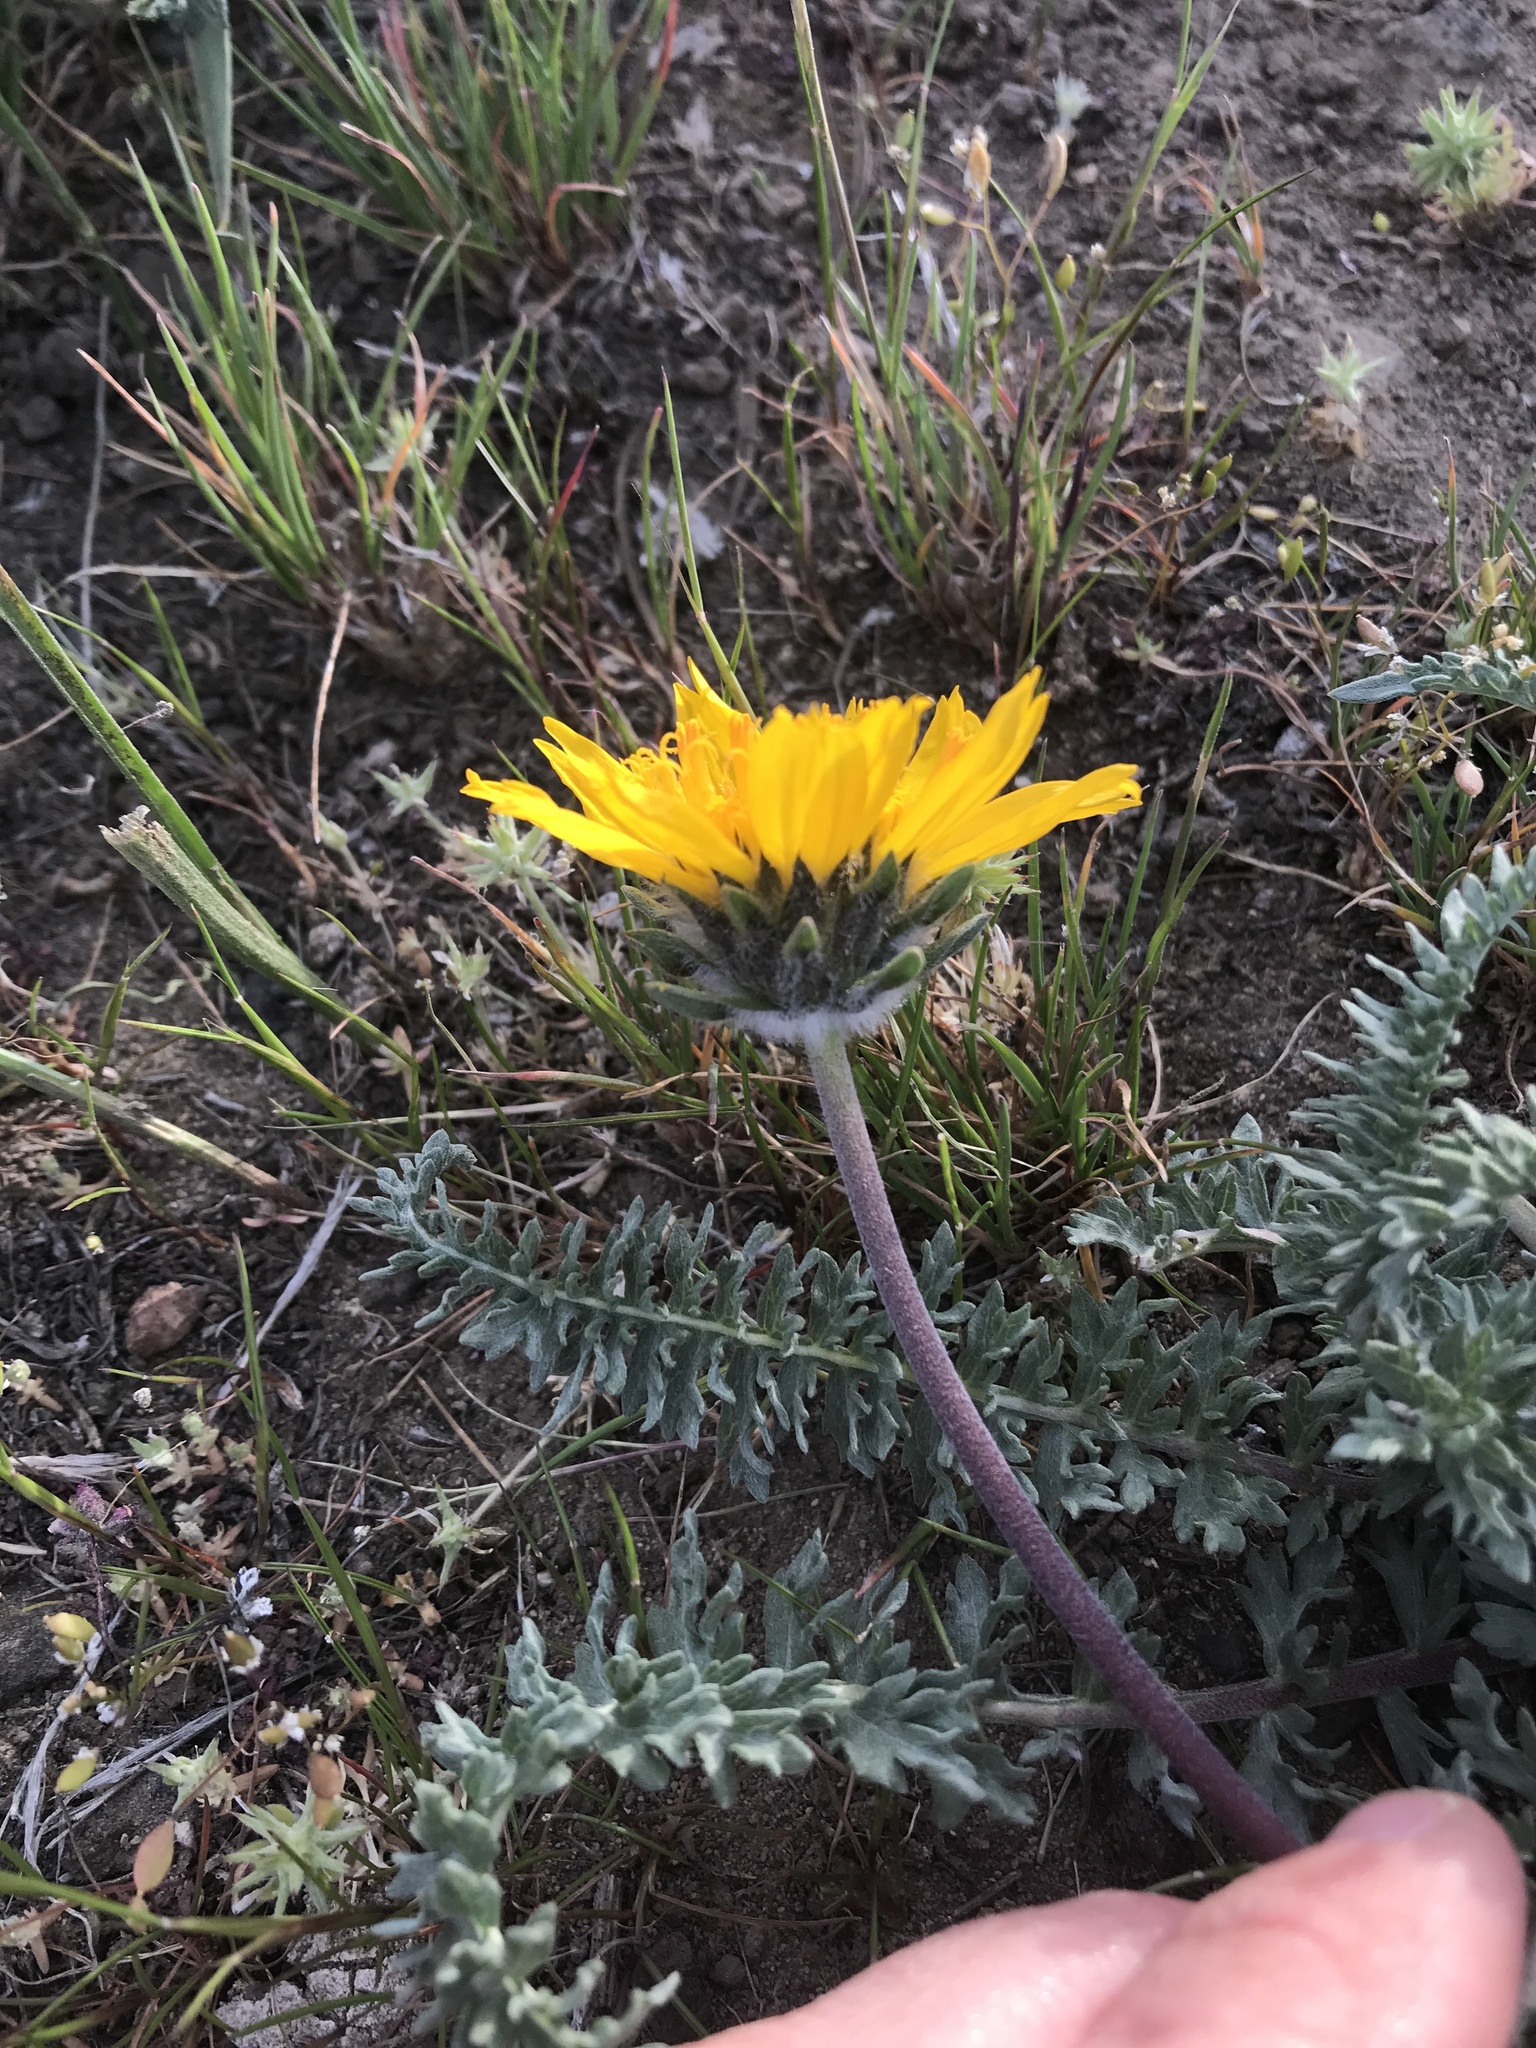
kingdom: Plantae
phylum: Tracheophyta
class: Magnoliopsida
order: Asterales
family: Asteraceae
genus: Balsamorhiza
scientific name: Balsamorhiza hookeri
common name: Hooker's balsamroot
